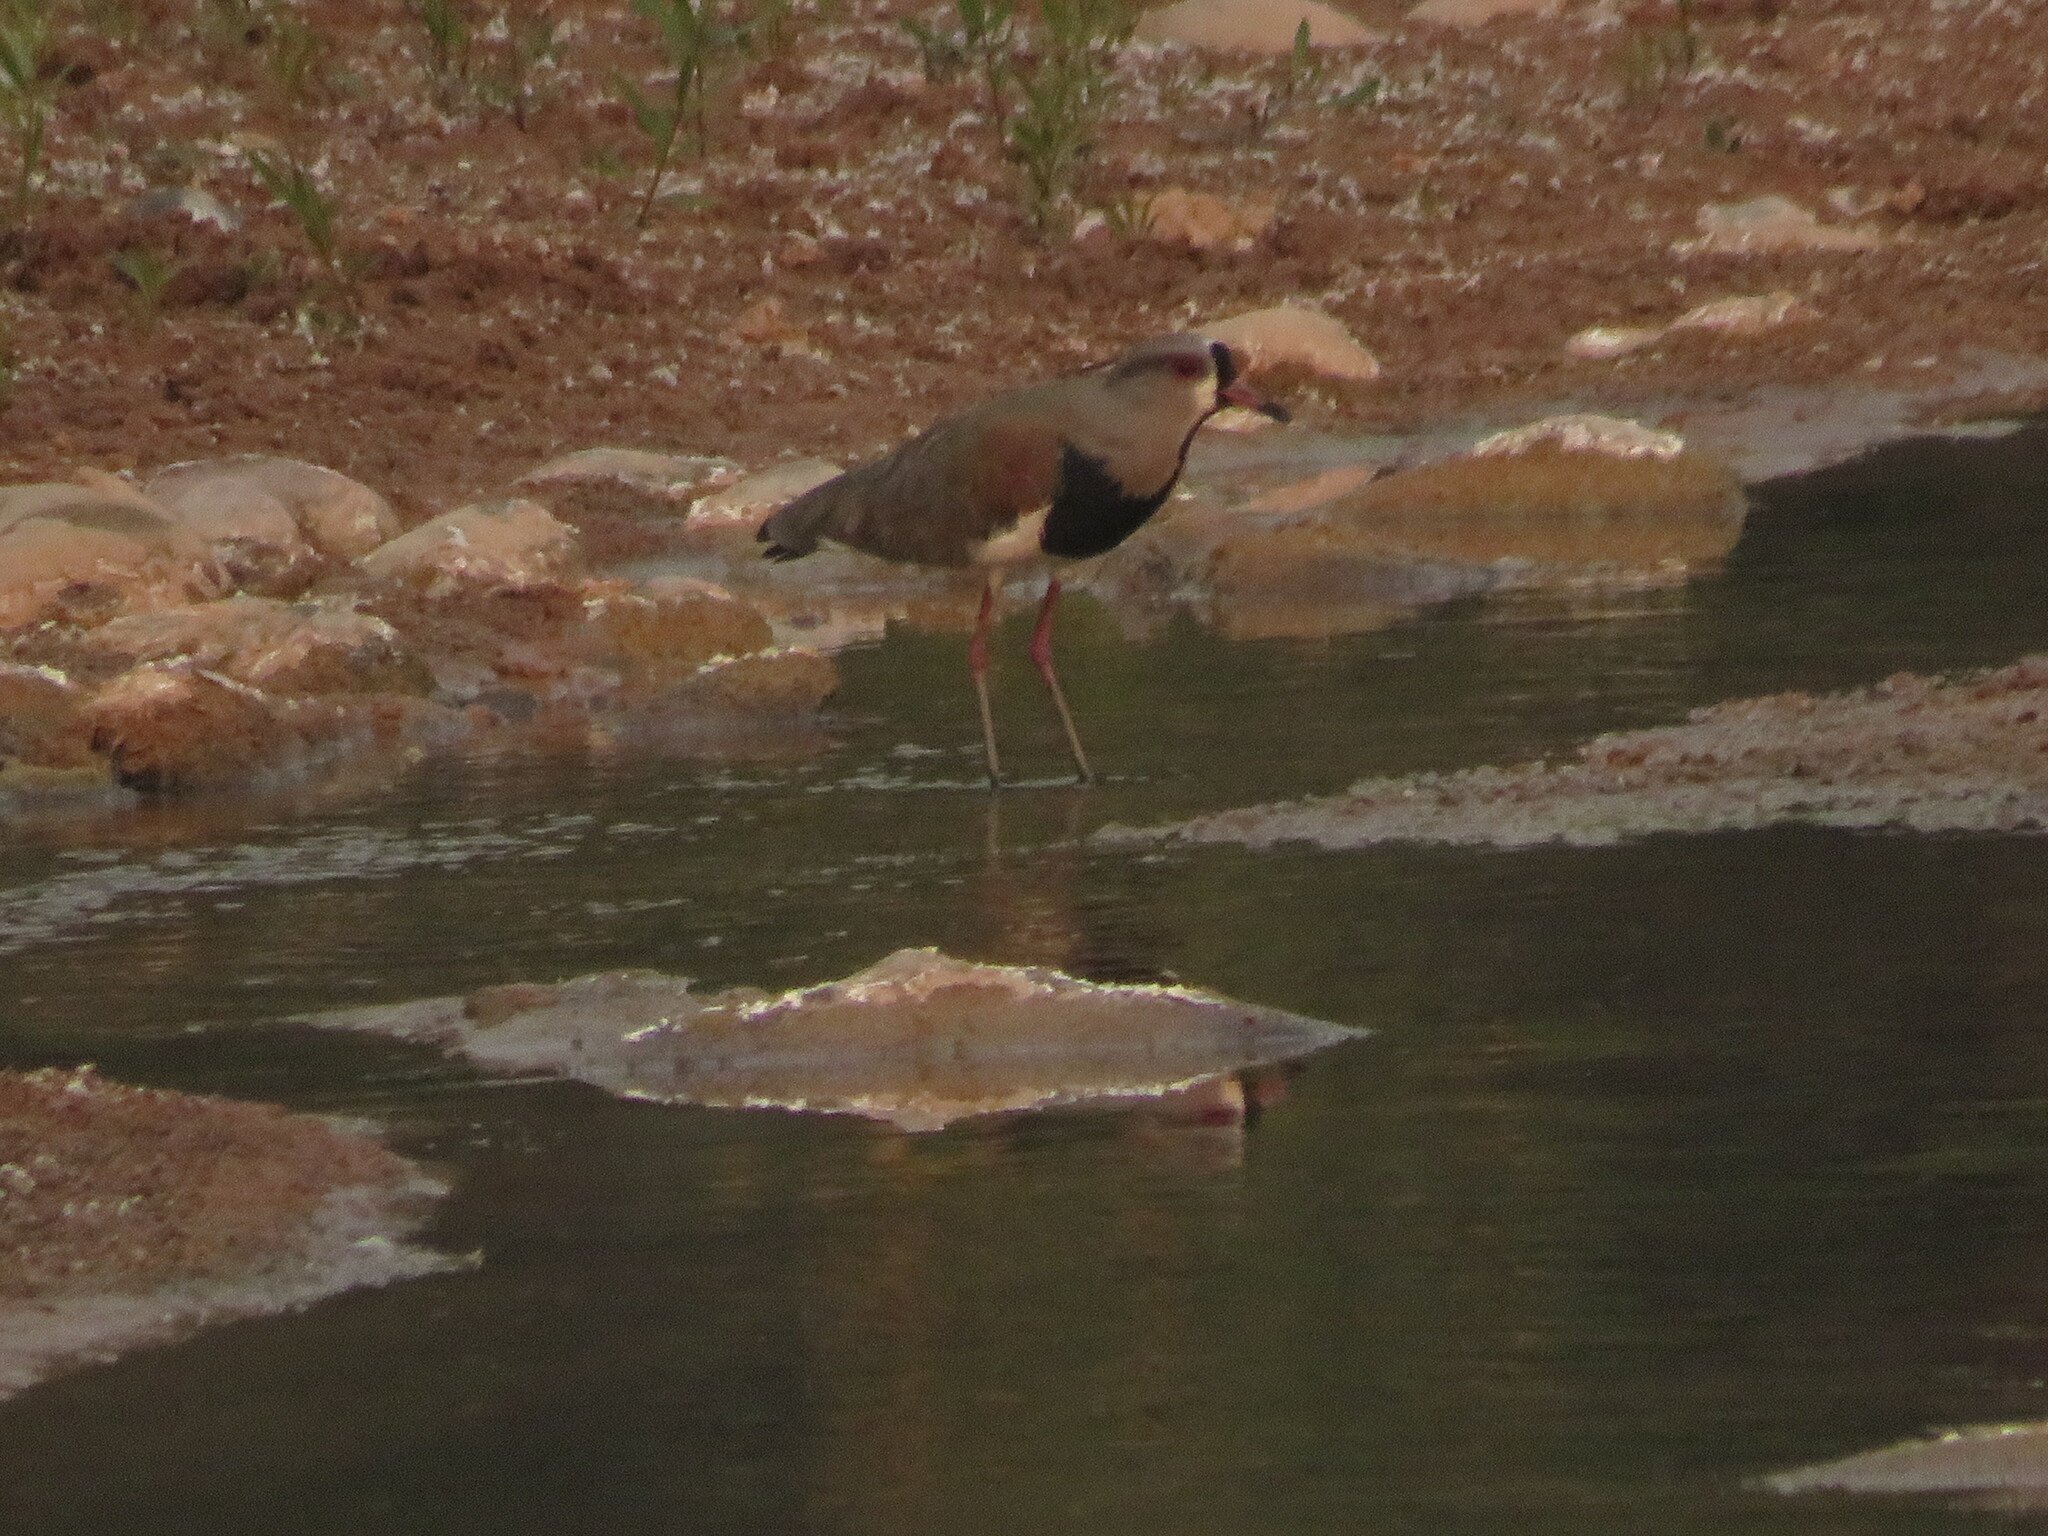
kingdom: Animalia
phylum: Chordata
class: Aves
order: Charadriiformes
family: Charadriidae
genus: Vanellus
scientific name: Vanellus chilensis
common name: Southern lapwing
